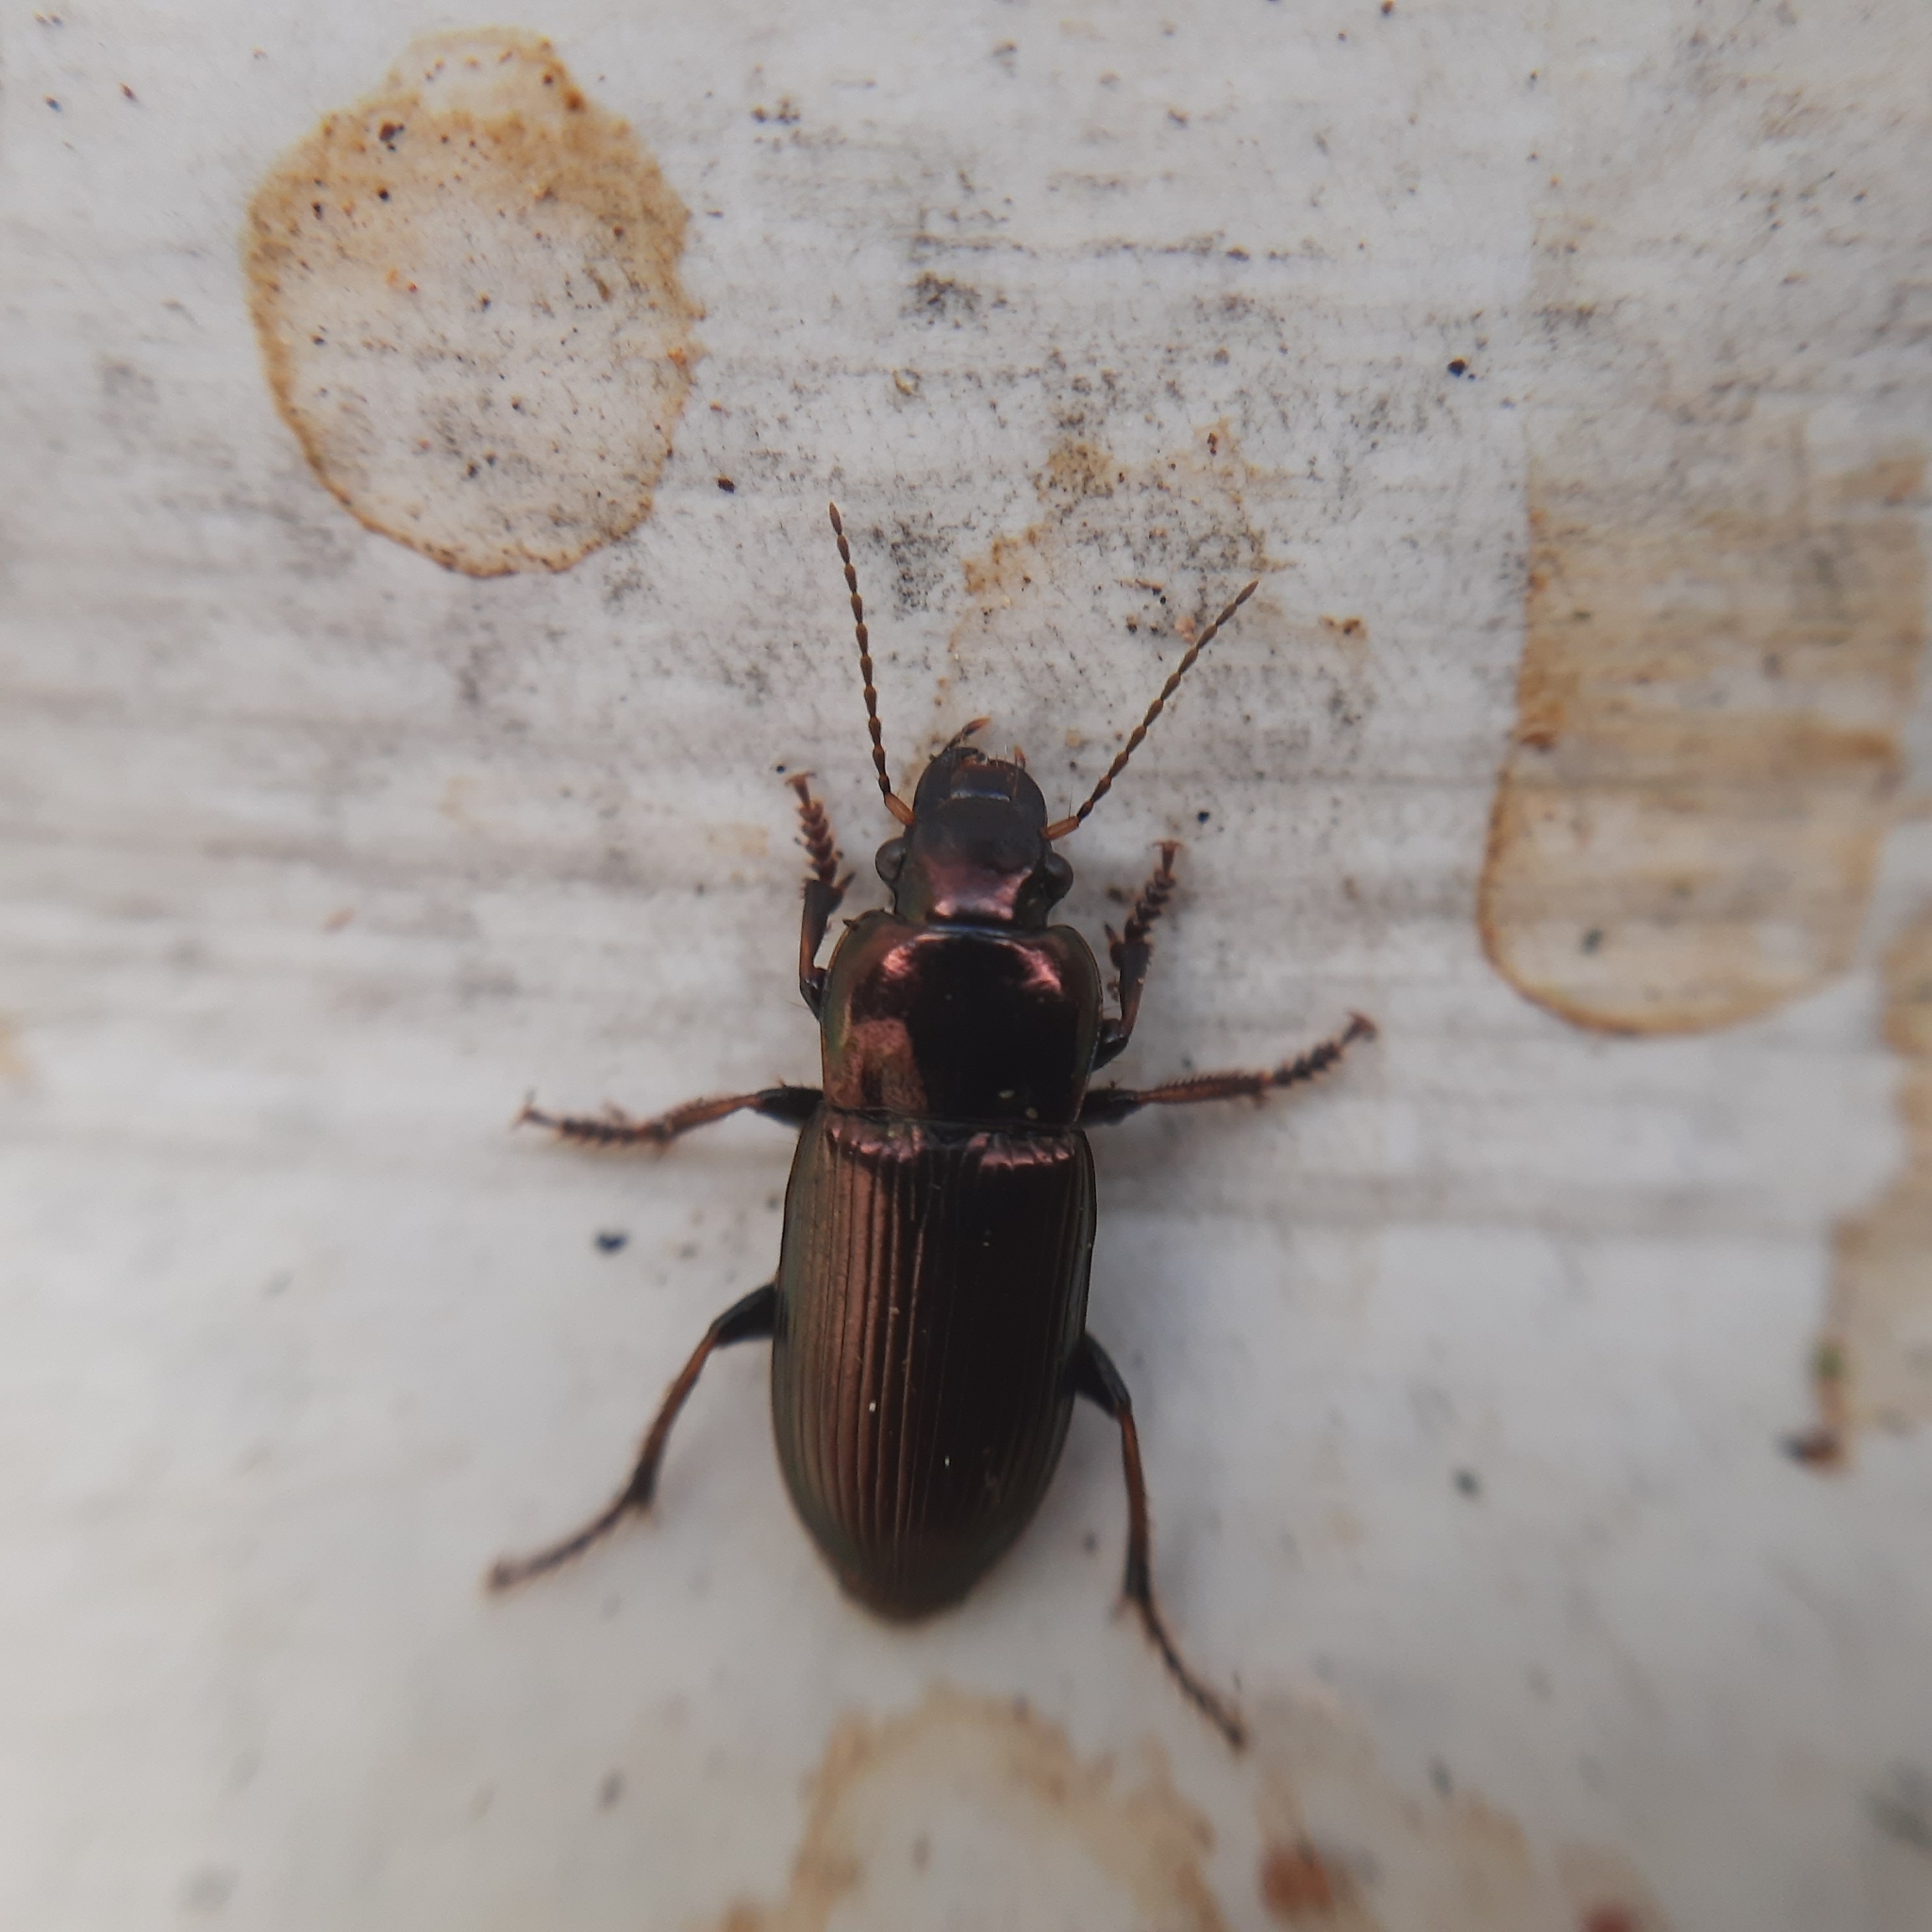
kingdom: Animalia
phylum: Arthropoda
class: Insecta
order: Coleoptera
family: Carabidae
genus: Harpalus
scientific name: Harpalus
